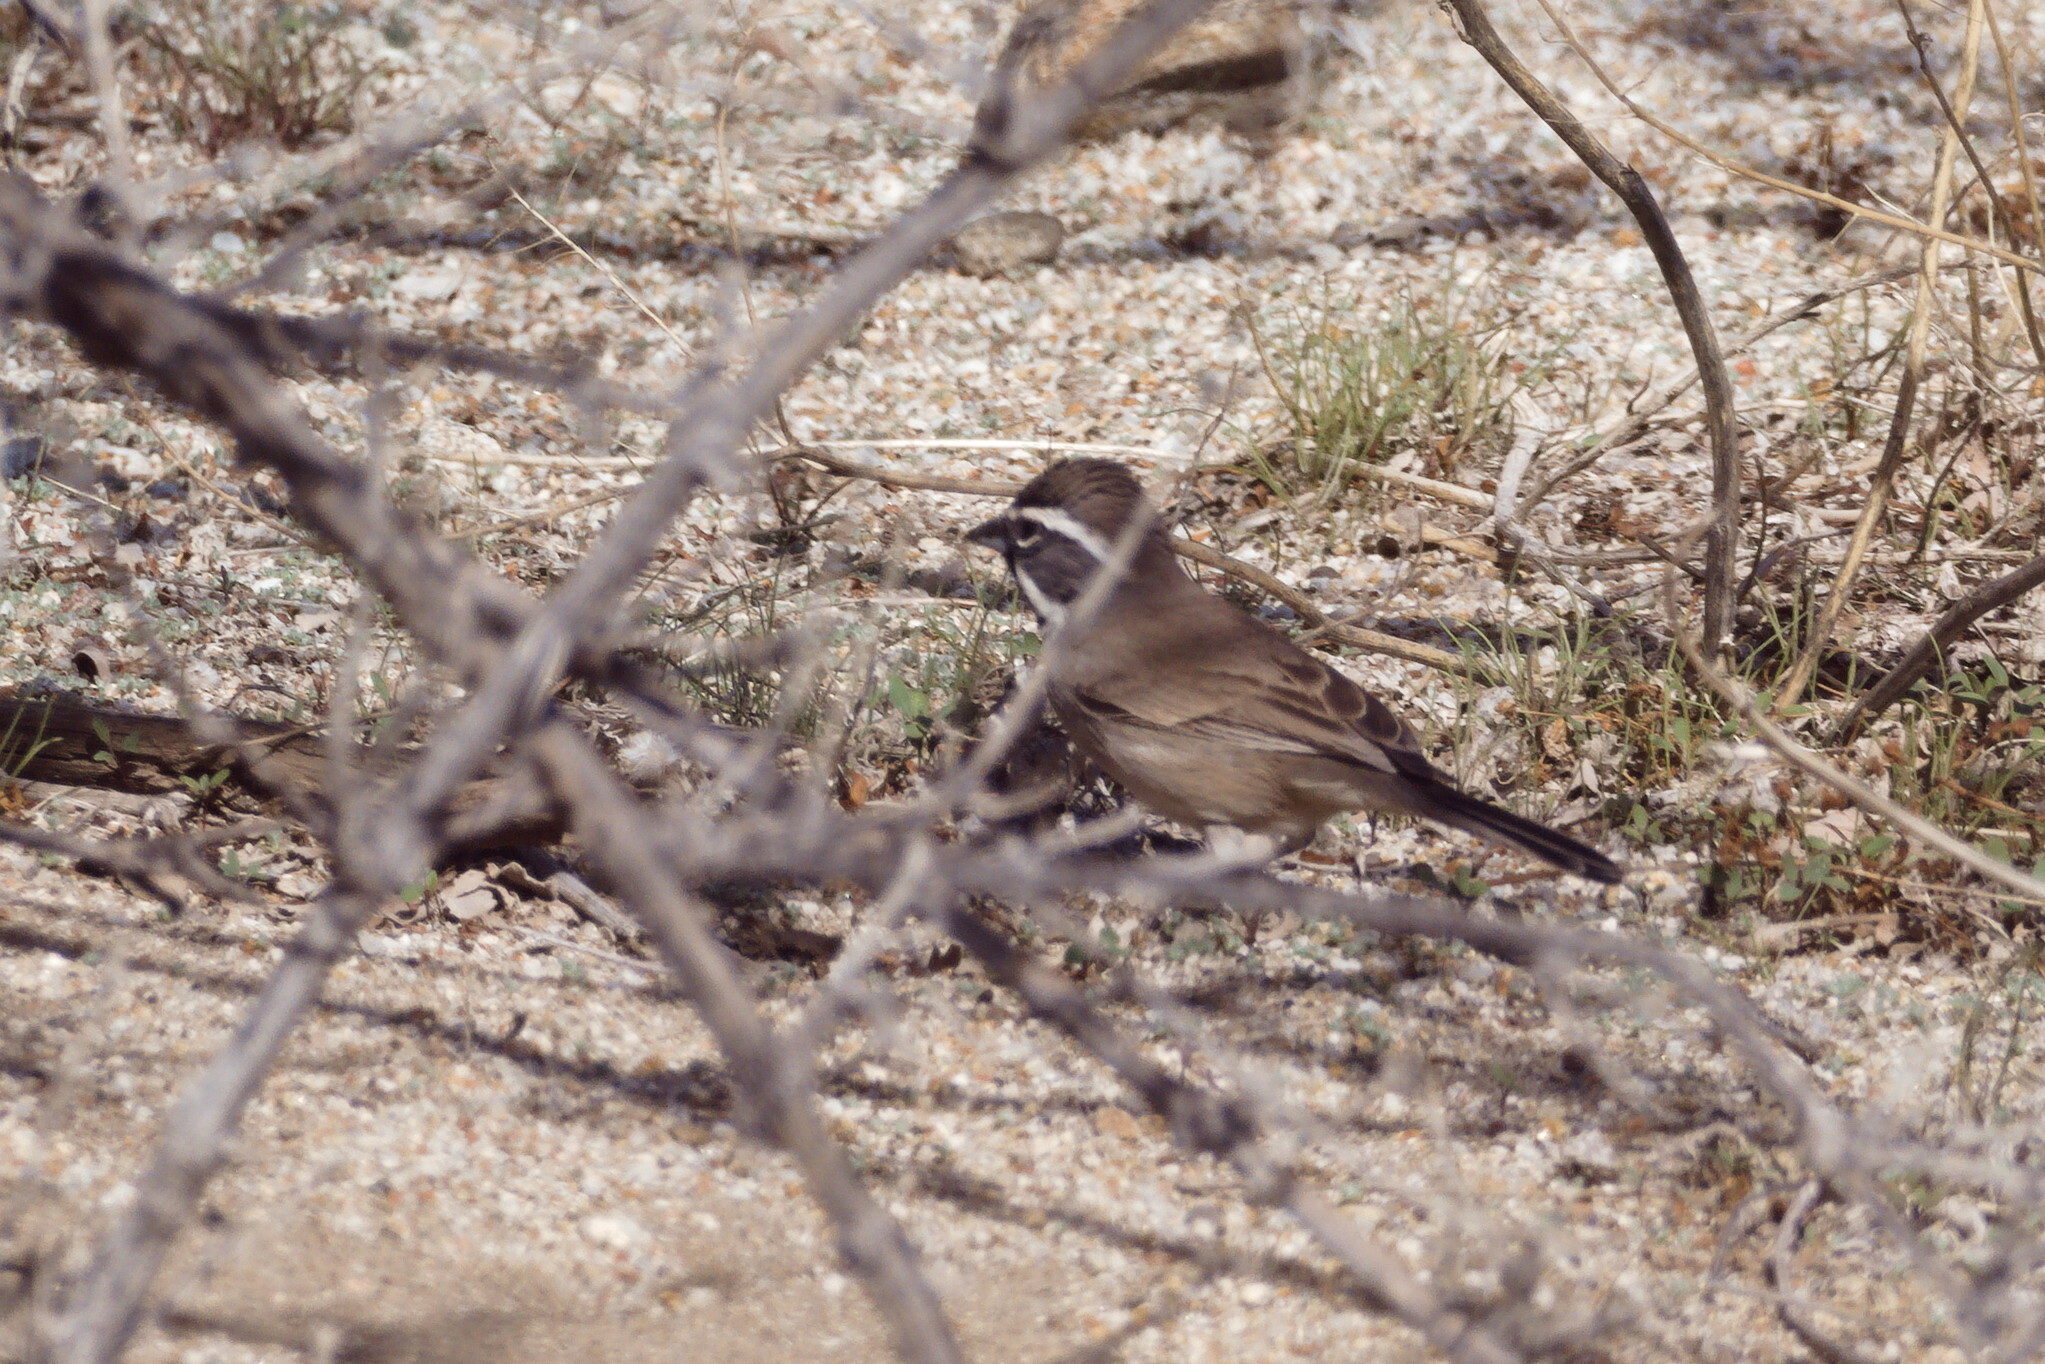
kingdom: Animalia
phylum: Chordata
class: Aves
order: Passeriformes
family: Passerellidae
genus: Amphispiza
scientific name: Amphispiza bilineata
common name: Black-throated sparrow
